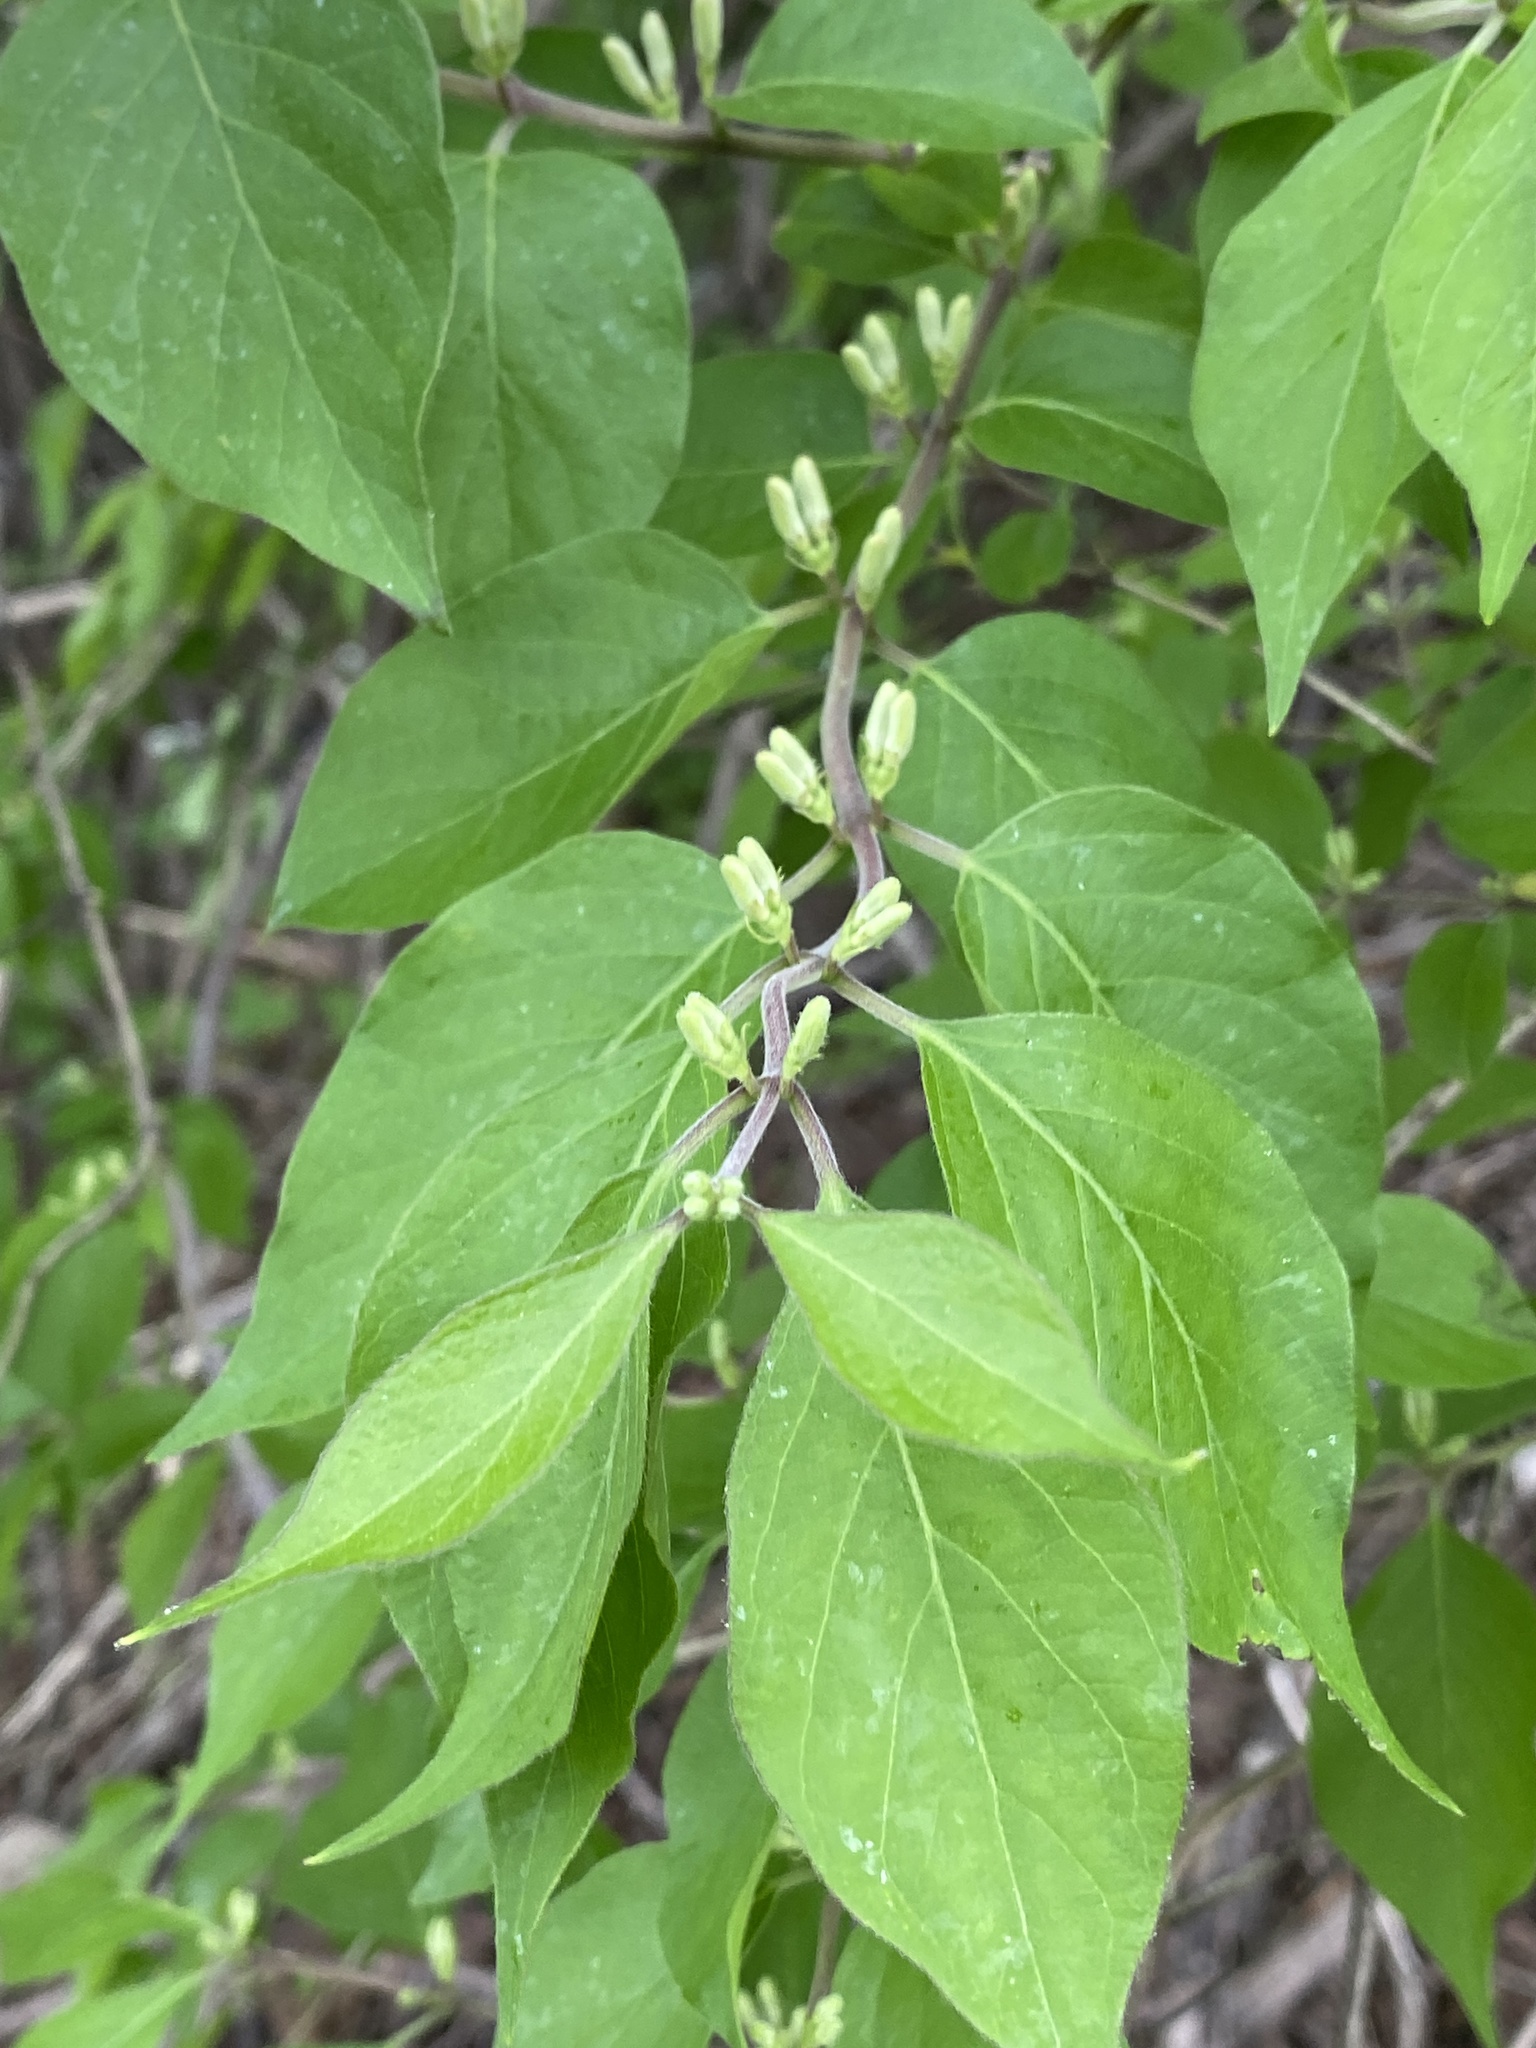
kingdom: Plantae
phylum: Tracheophyta
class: Magnoliopsida
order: Dipsacales
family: Caprifoliaceae
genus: Lonicera
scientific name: Lonicera maackii
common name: Amur honeysuckle
